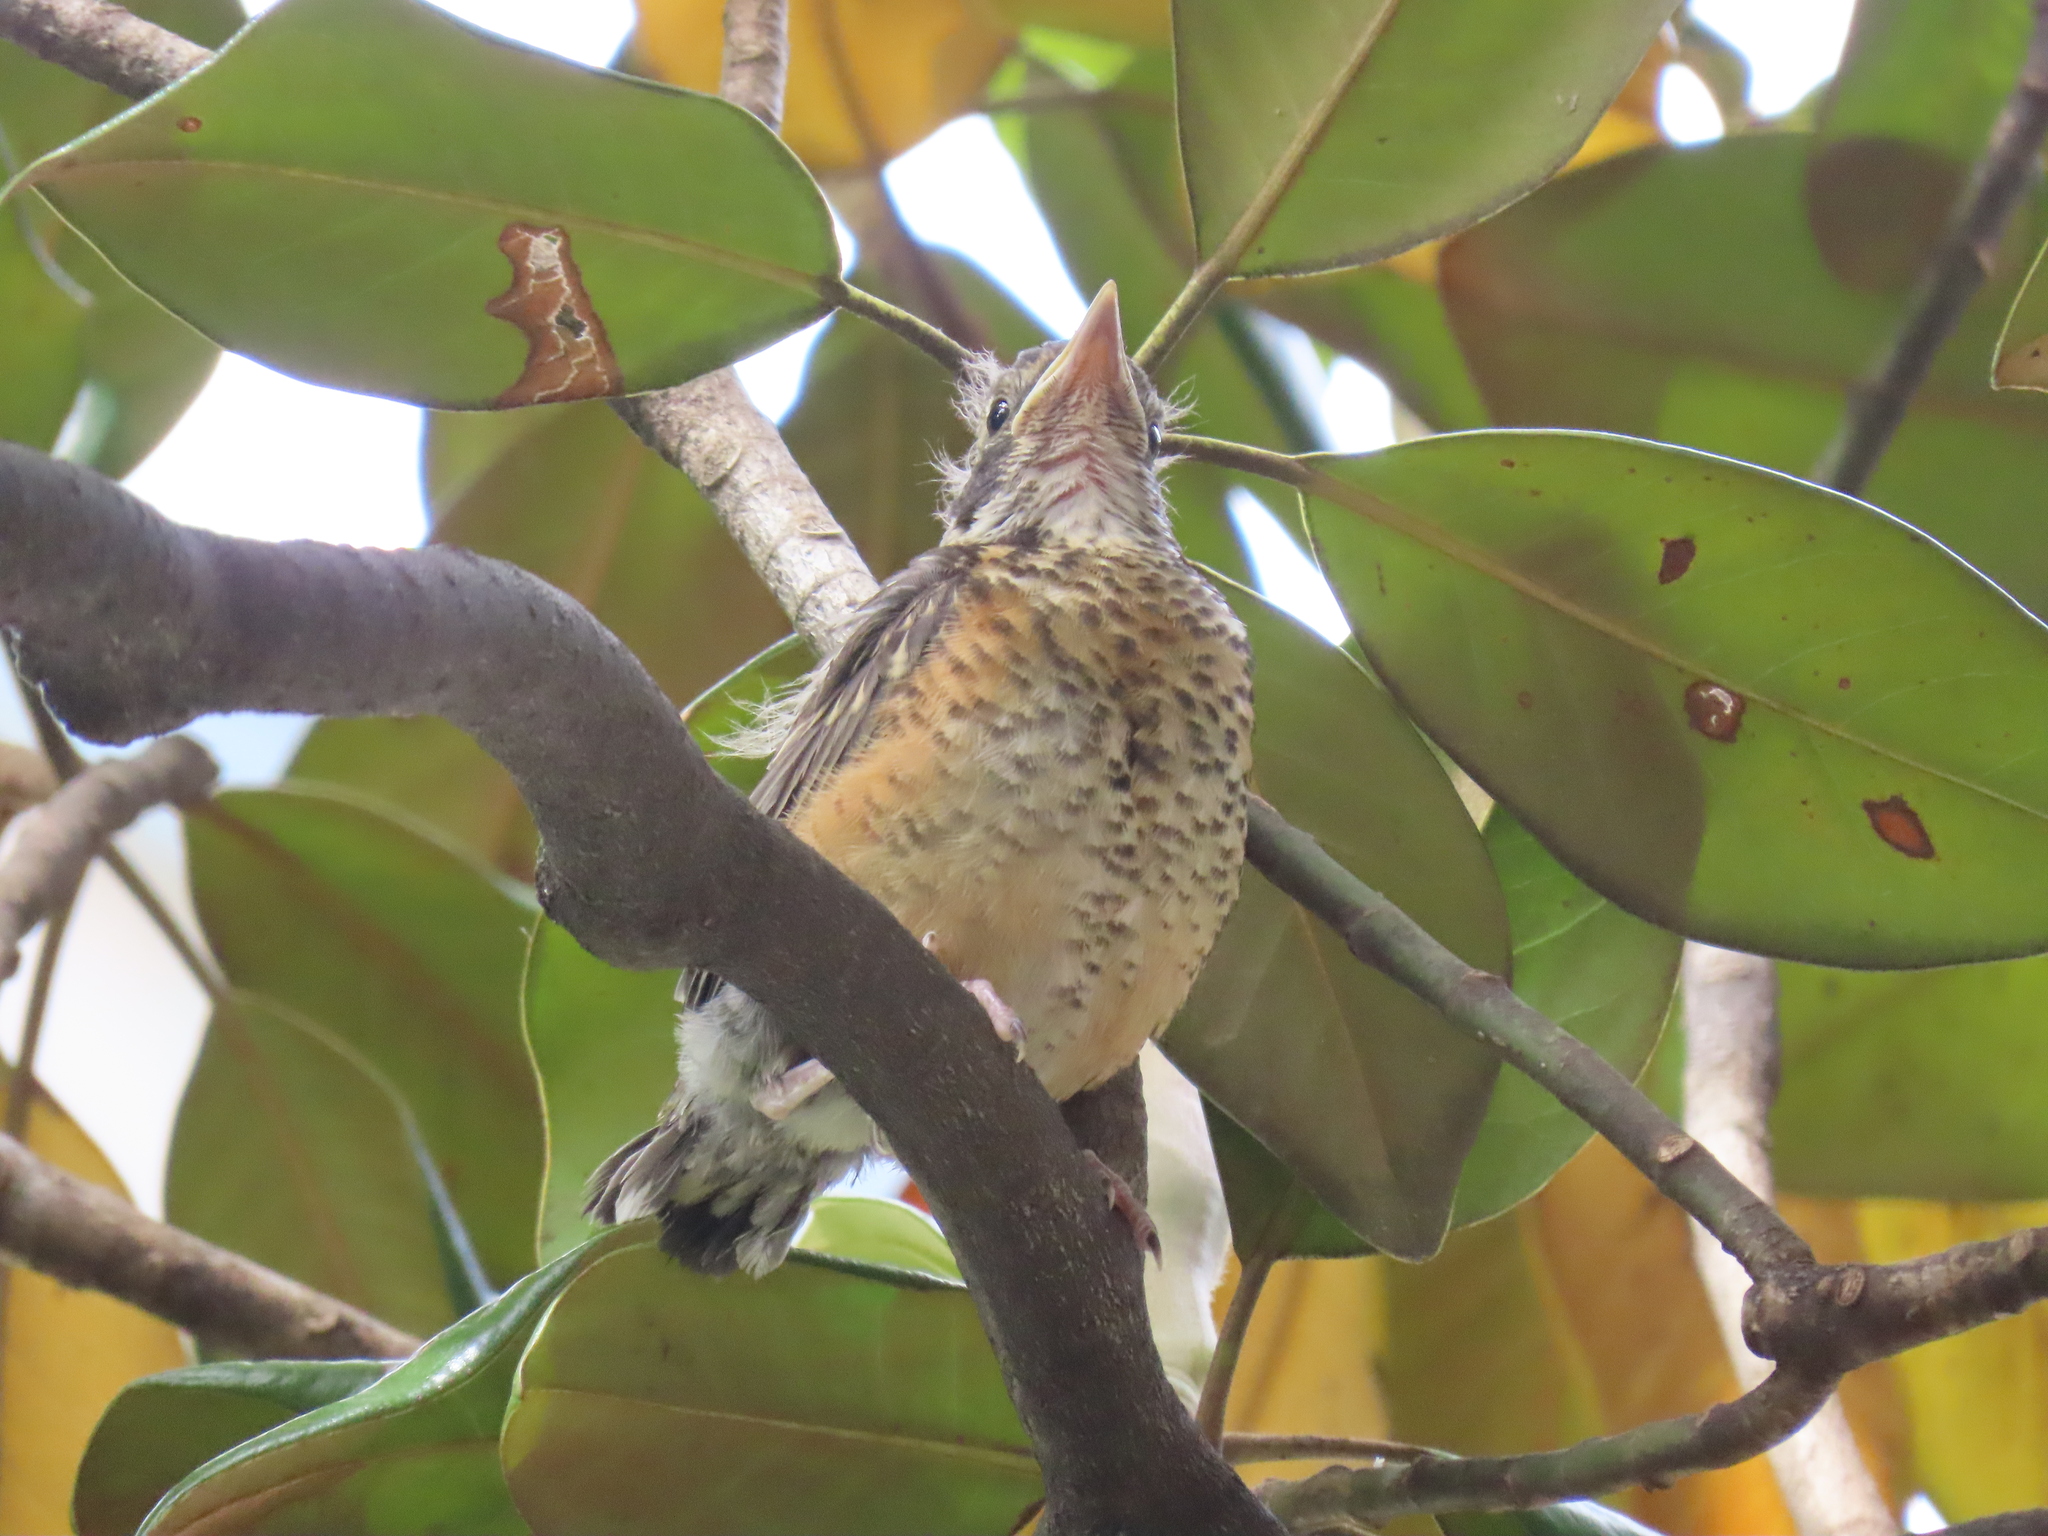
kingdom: Animalia
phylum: Chordata
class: Aves
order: Passeriformes
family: Turdidae
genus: Turdus
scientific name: Turdus migratorius
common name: American robin
